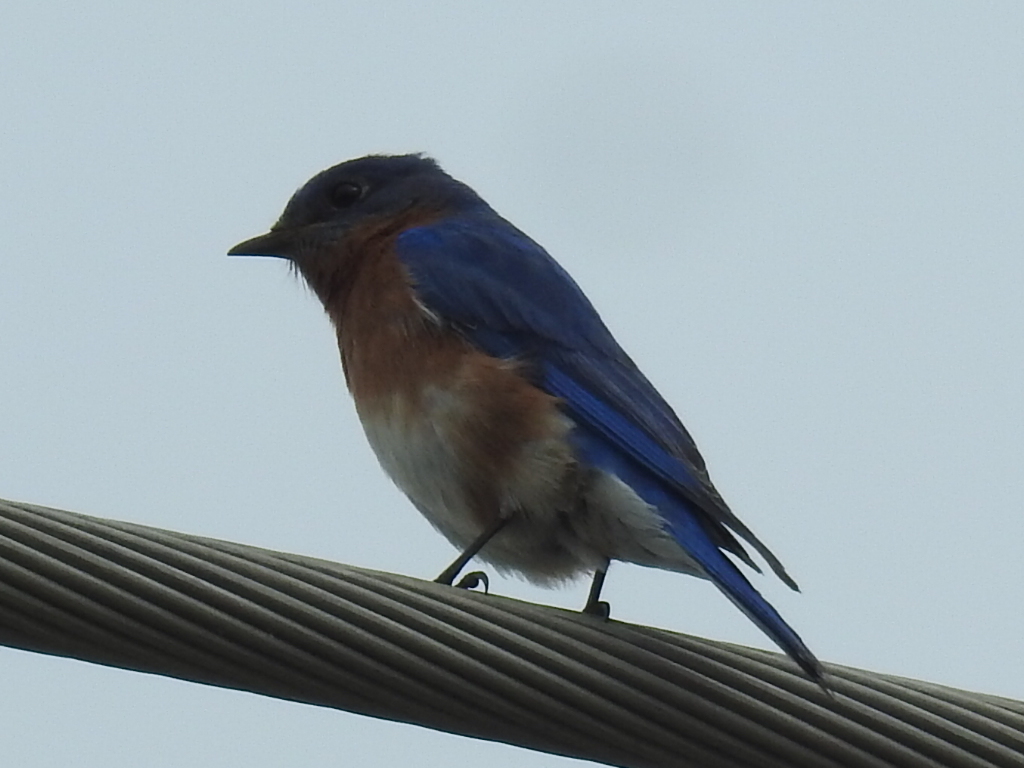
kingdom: Animalia
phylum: Chordata
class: Aves
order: Passeriformes
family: Turdidae
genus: Sialia
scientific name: Sialia sialis
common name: Eastern bluebird
